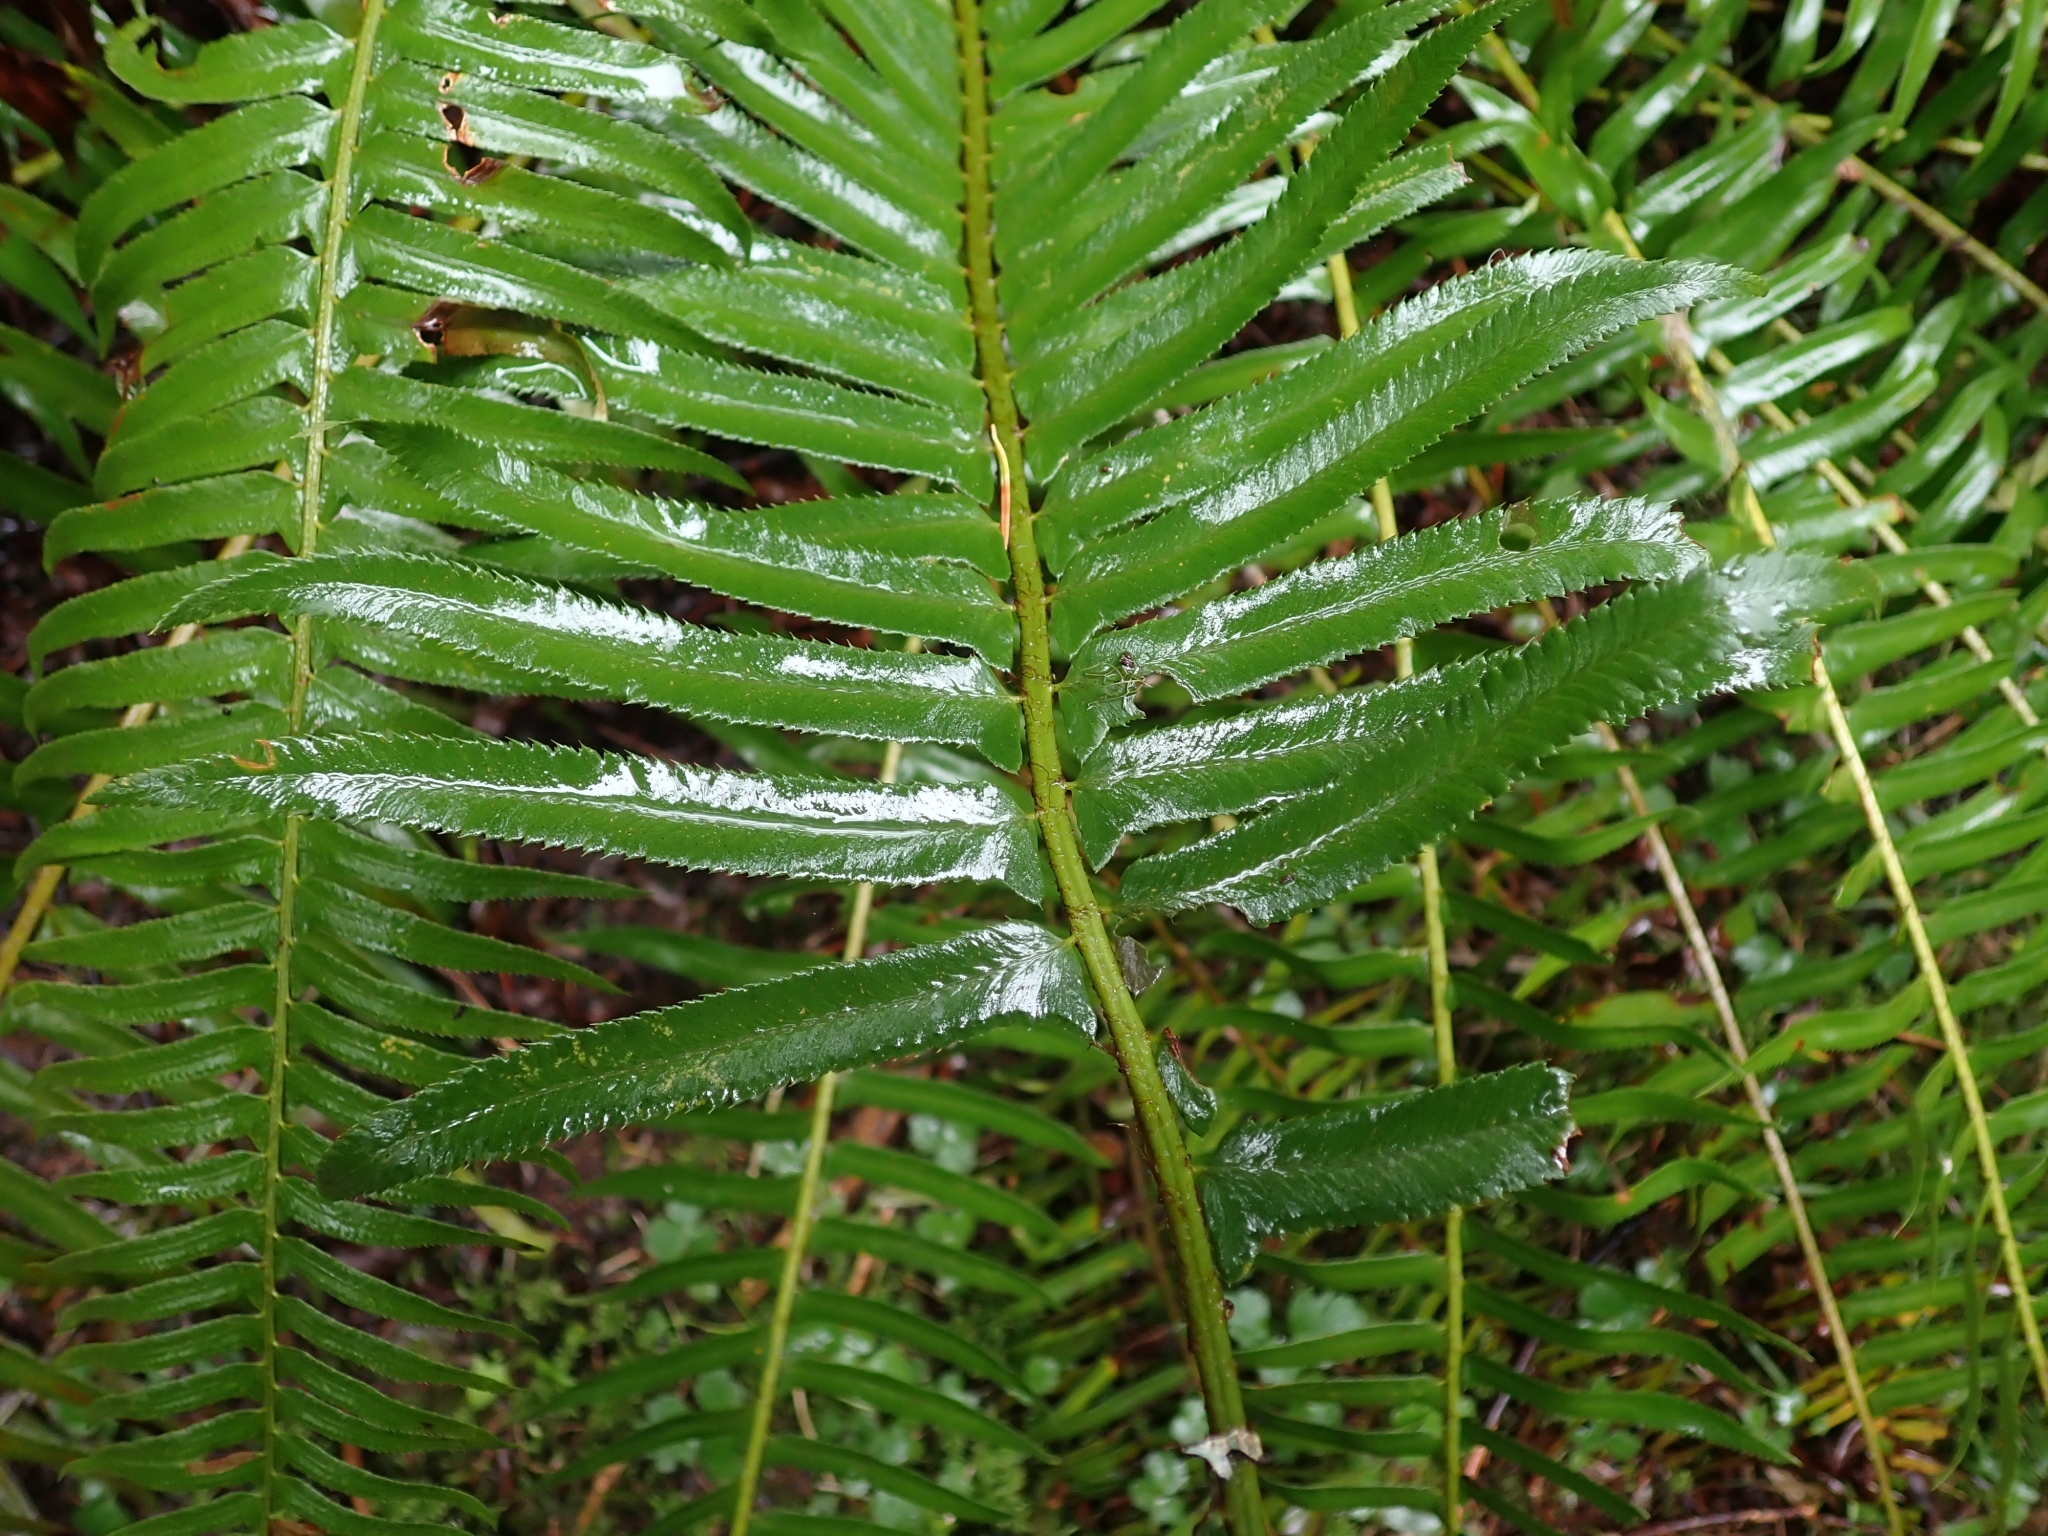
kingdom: Plantae
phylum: Tracheophyta
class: Polypodiopsida
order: Polypodiales
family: Dryopteridaceae
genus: Polystichum
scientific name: Polystichum munitum
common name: Western sword-fern
